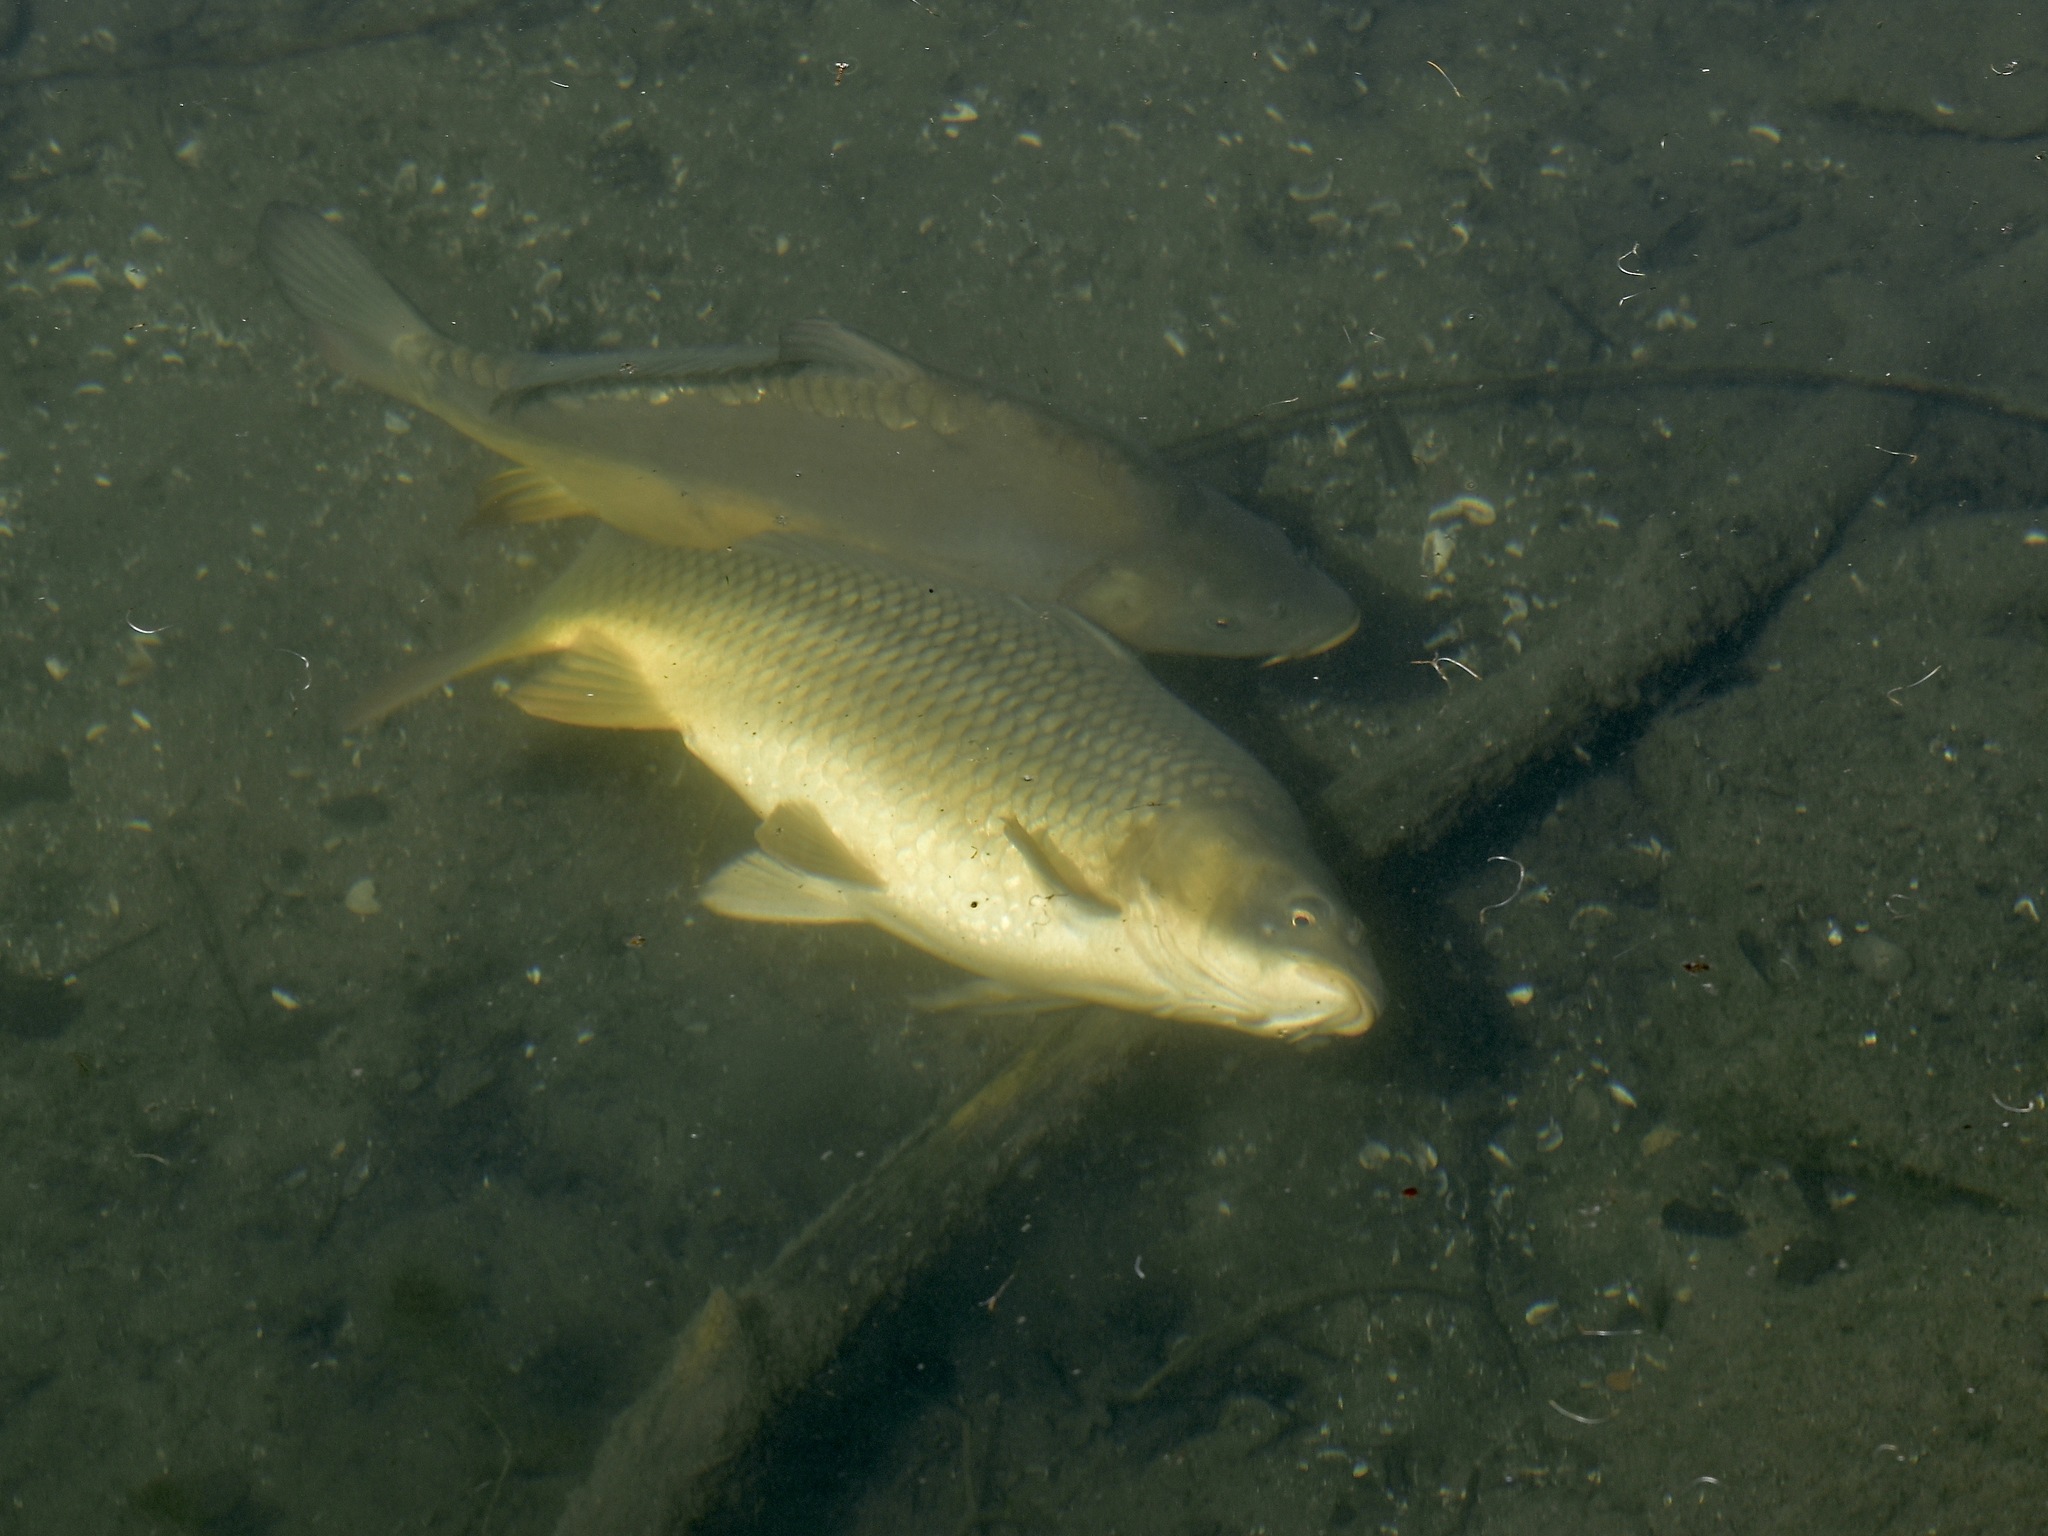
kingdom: Animalia
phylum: Chordata
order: Cypriniformes
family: Cyprinidae
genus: Cyprinus
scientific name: Cyprinus carpio
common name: Common carp
